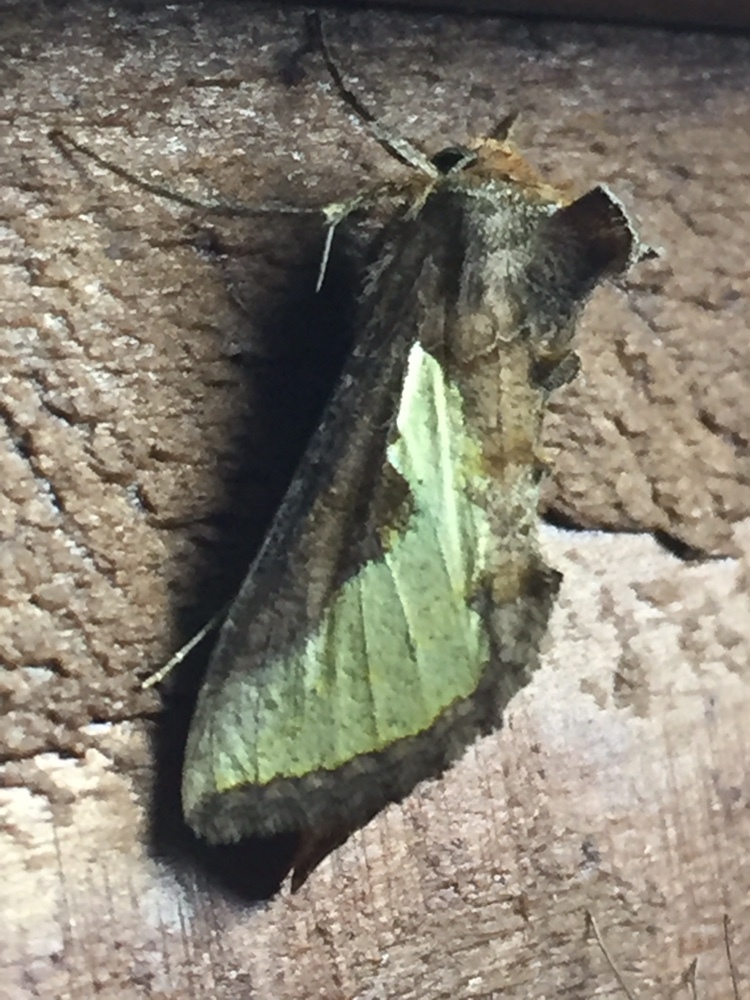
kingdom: Animalia
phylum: Arthropoda
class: Insecta
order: Lepidoptera
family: Noctuidae
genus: Thysanoplusia
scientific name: Thysanoplusia orichalcea
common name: Slender burnished brass, golden plusia
